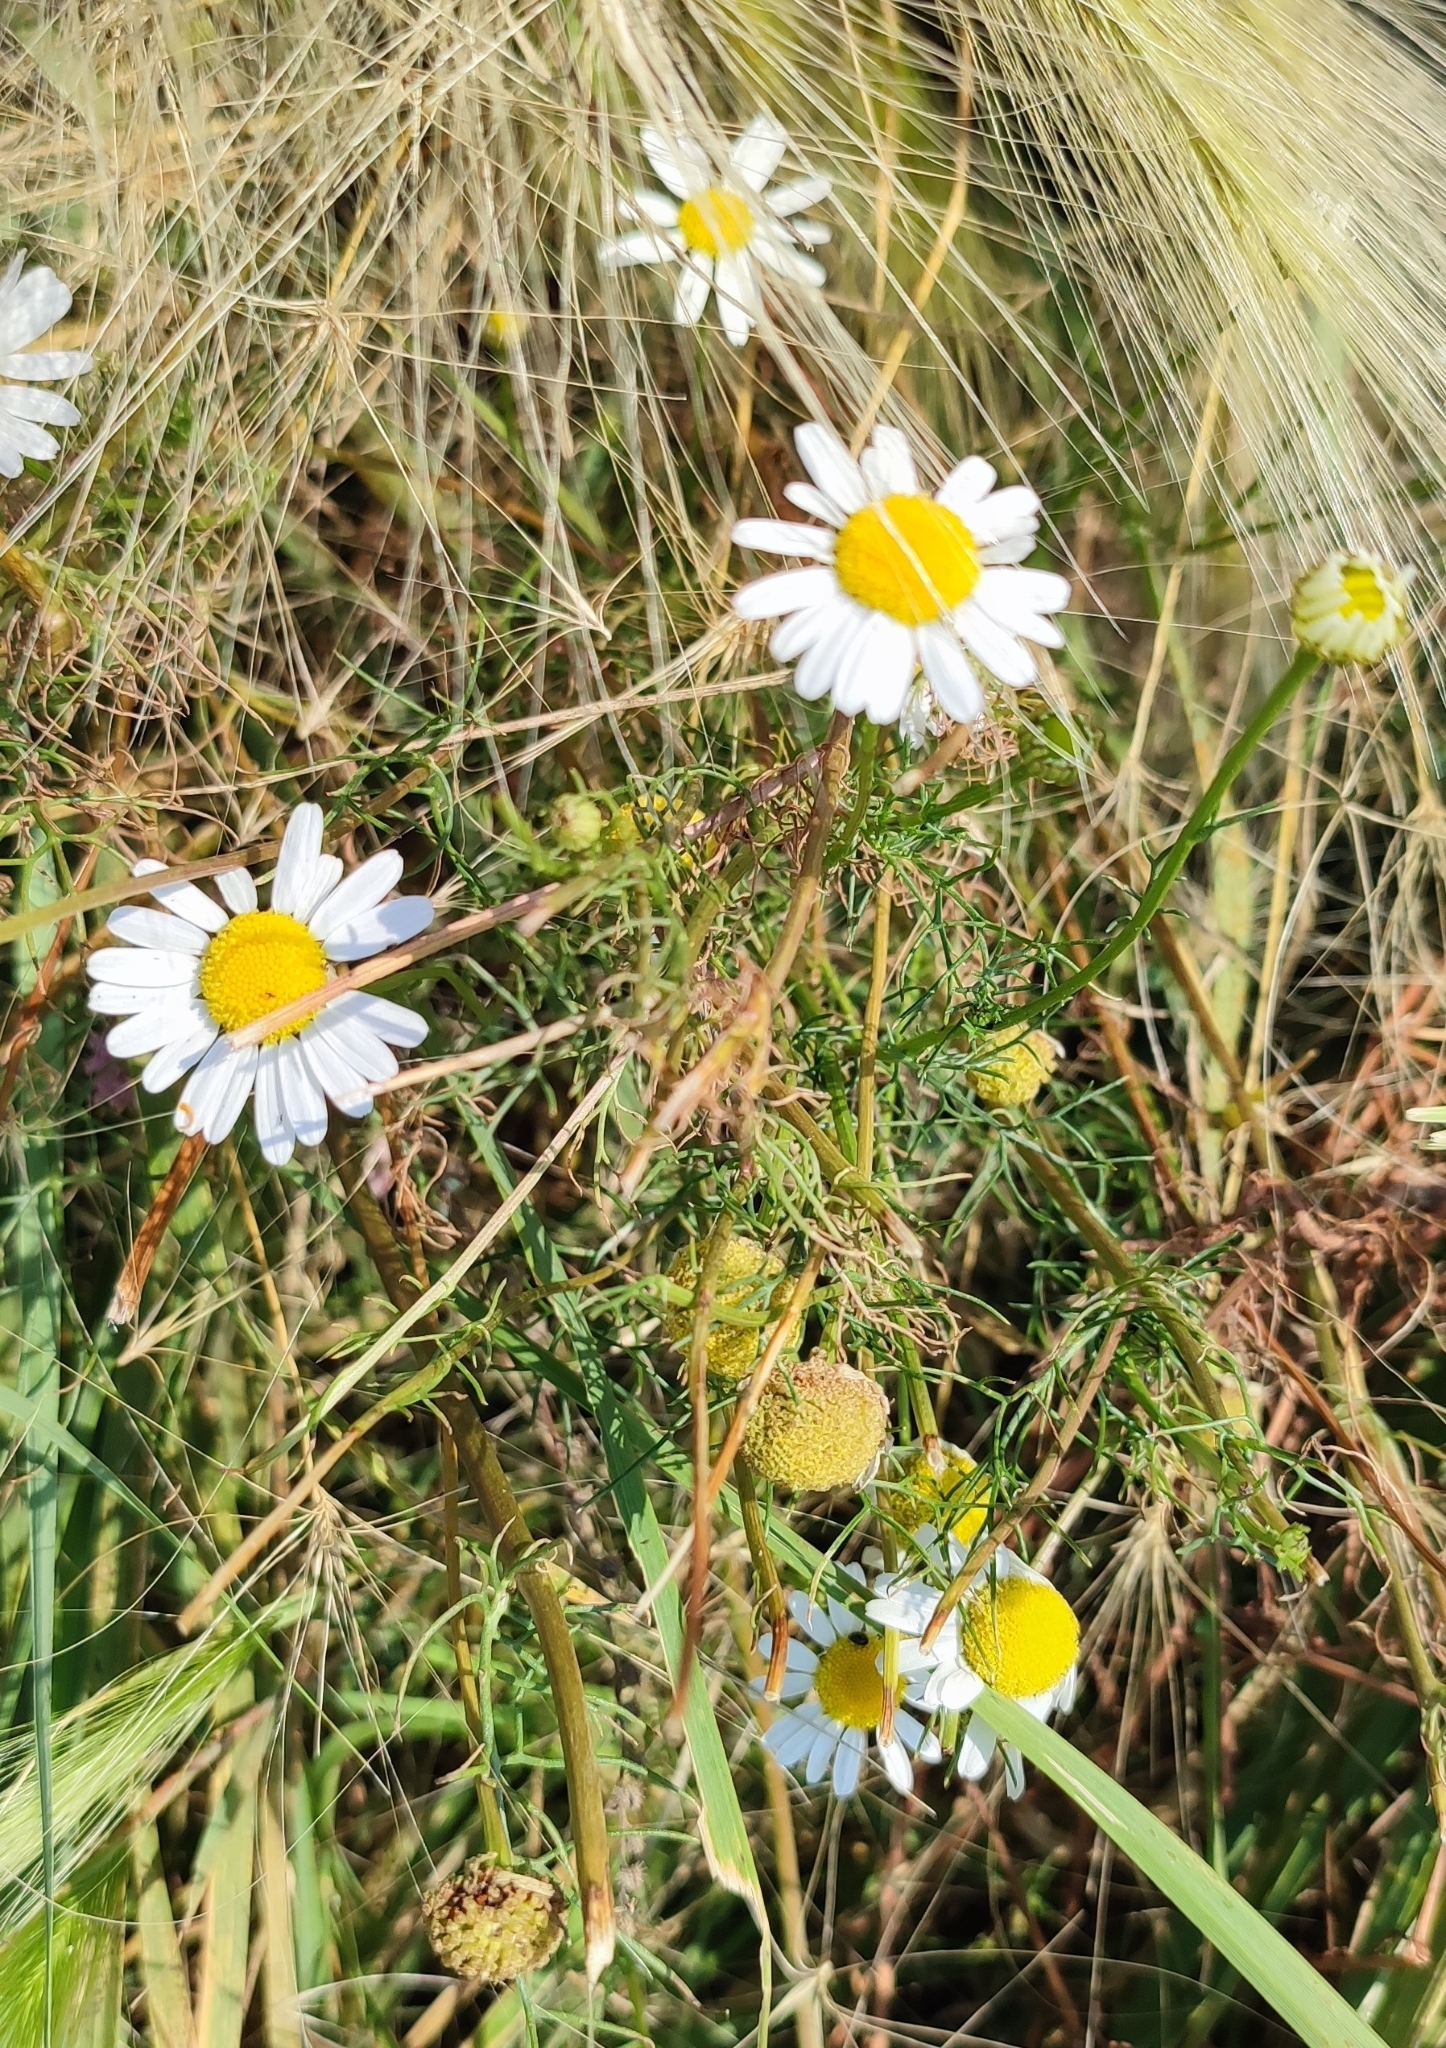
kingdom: Plantae
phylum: Tracheophyta
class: Magnoliopsida
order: Asterales
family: Asteraceae
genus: Tripleurospermum
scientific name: Tripleurospermum inodorum
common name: Scentless mayweed
